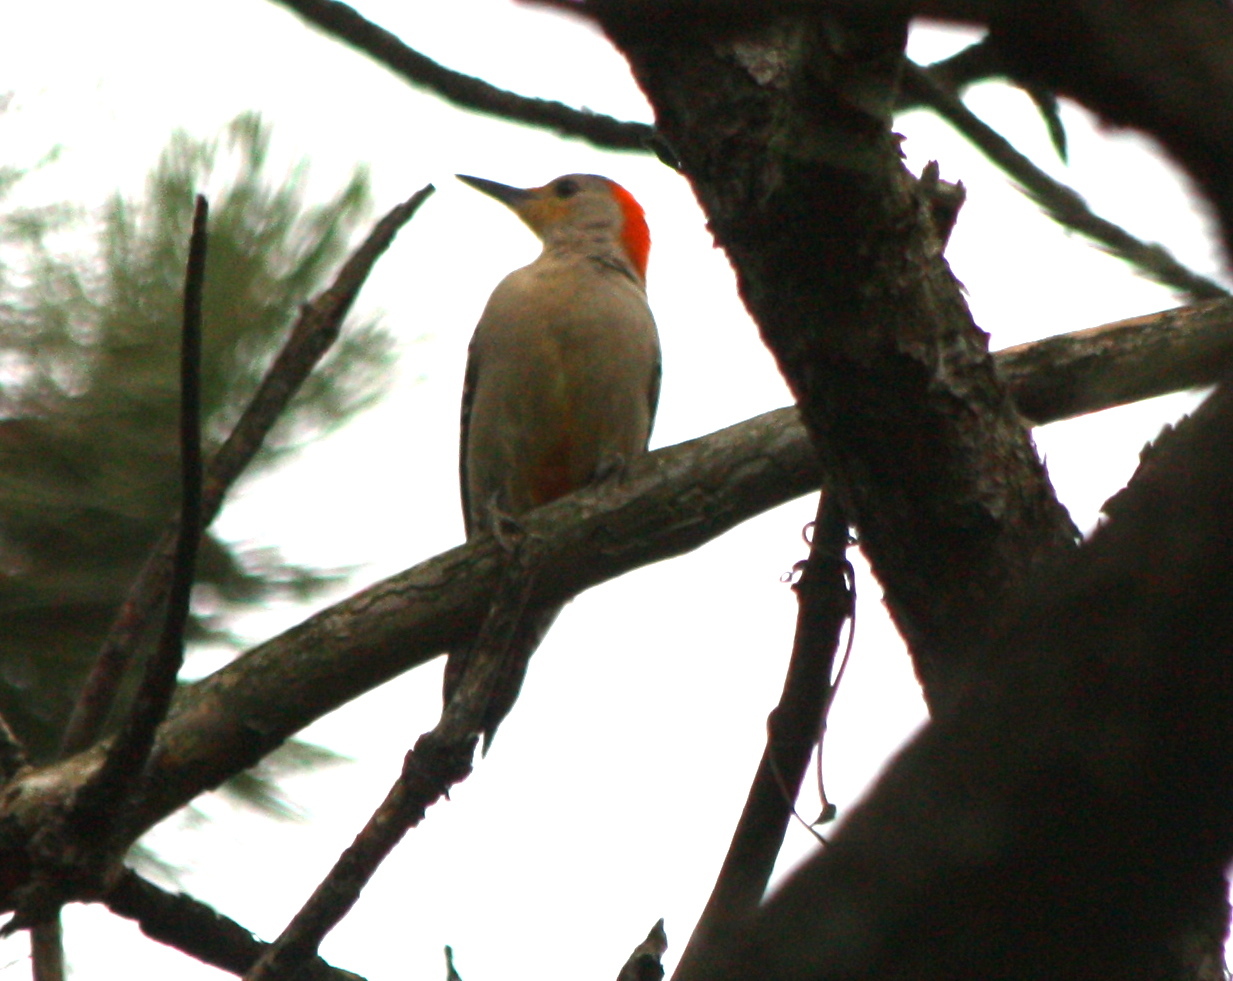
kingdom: Animalia
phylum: Chordata
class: Aves
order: Piciformes
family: Picidae
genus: Melanerpes
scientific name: Melanerpes carolinus
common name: Red-bellied woodpecker
